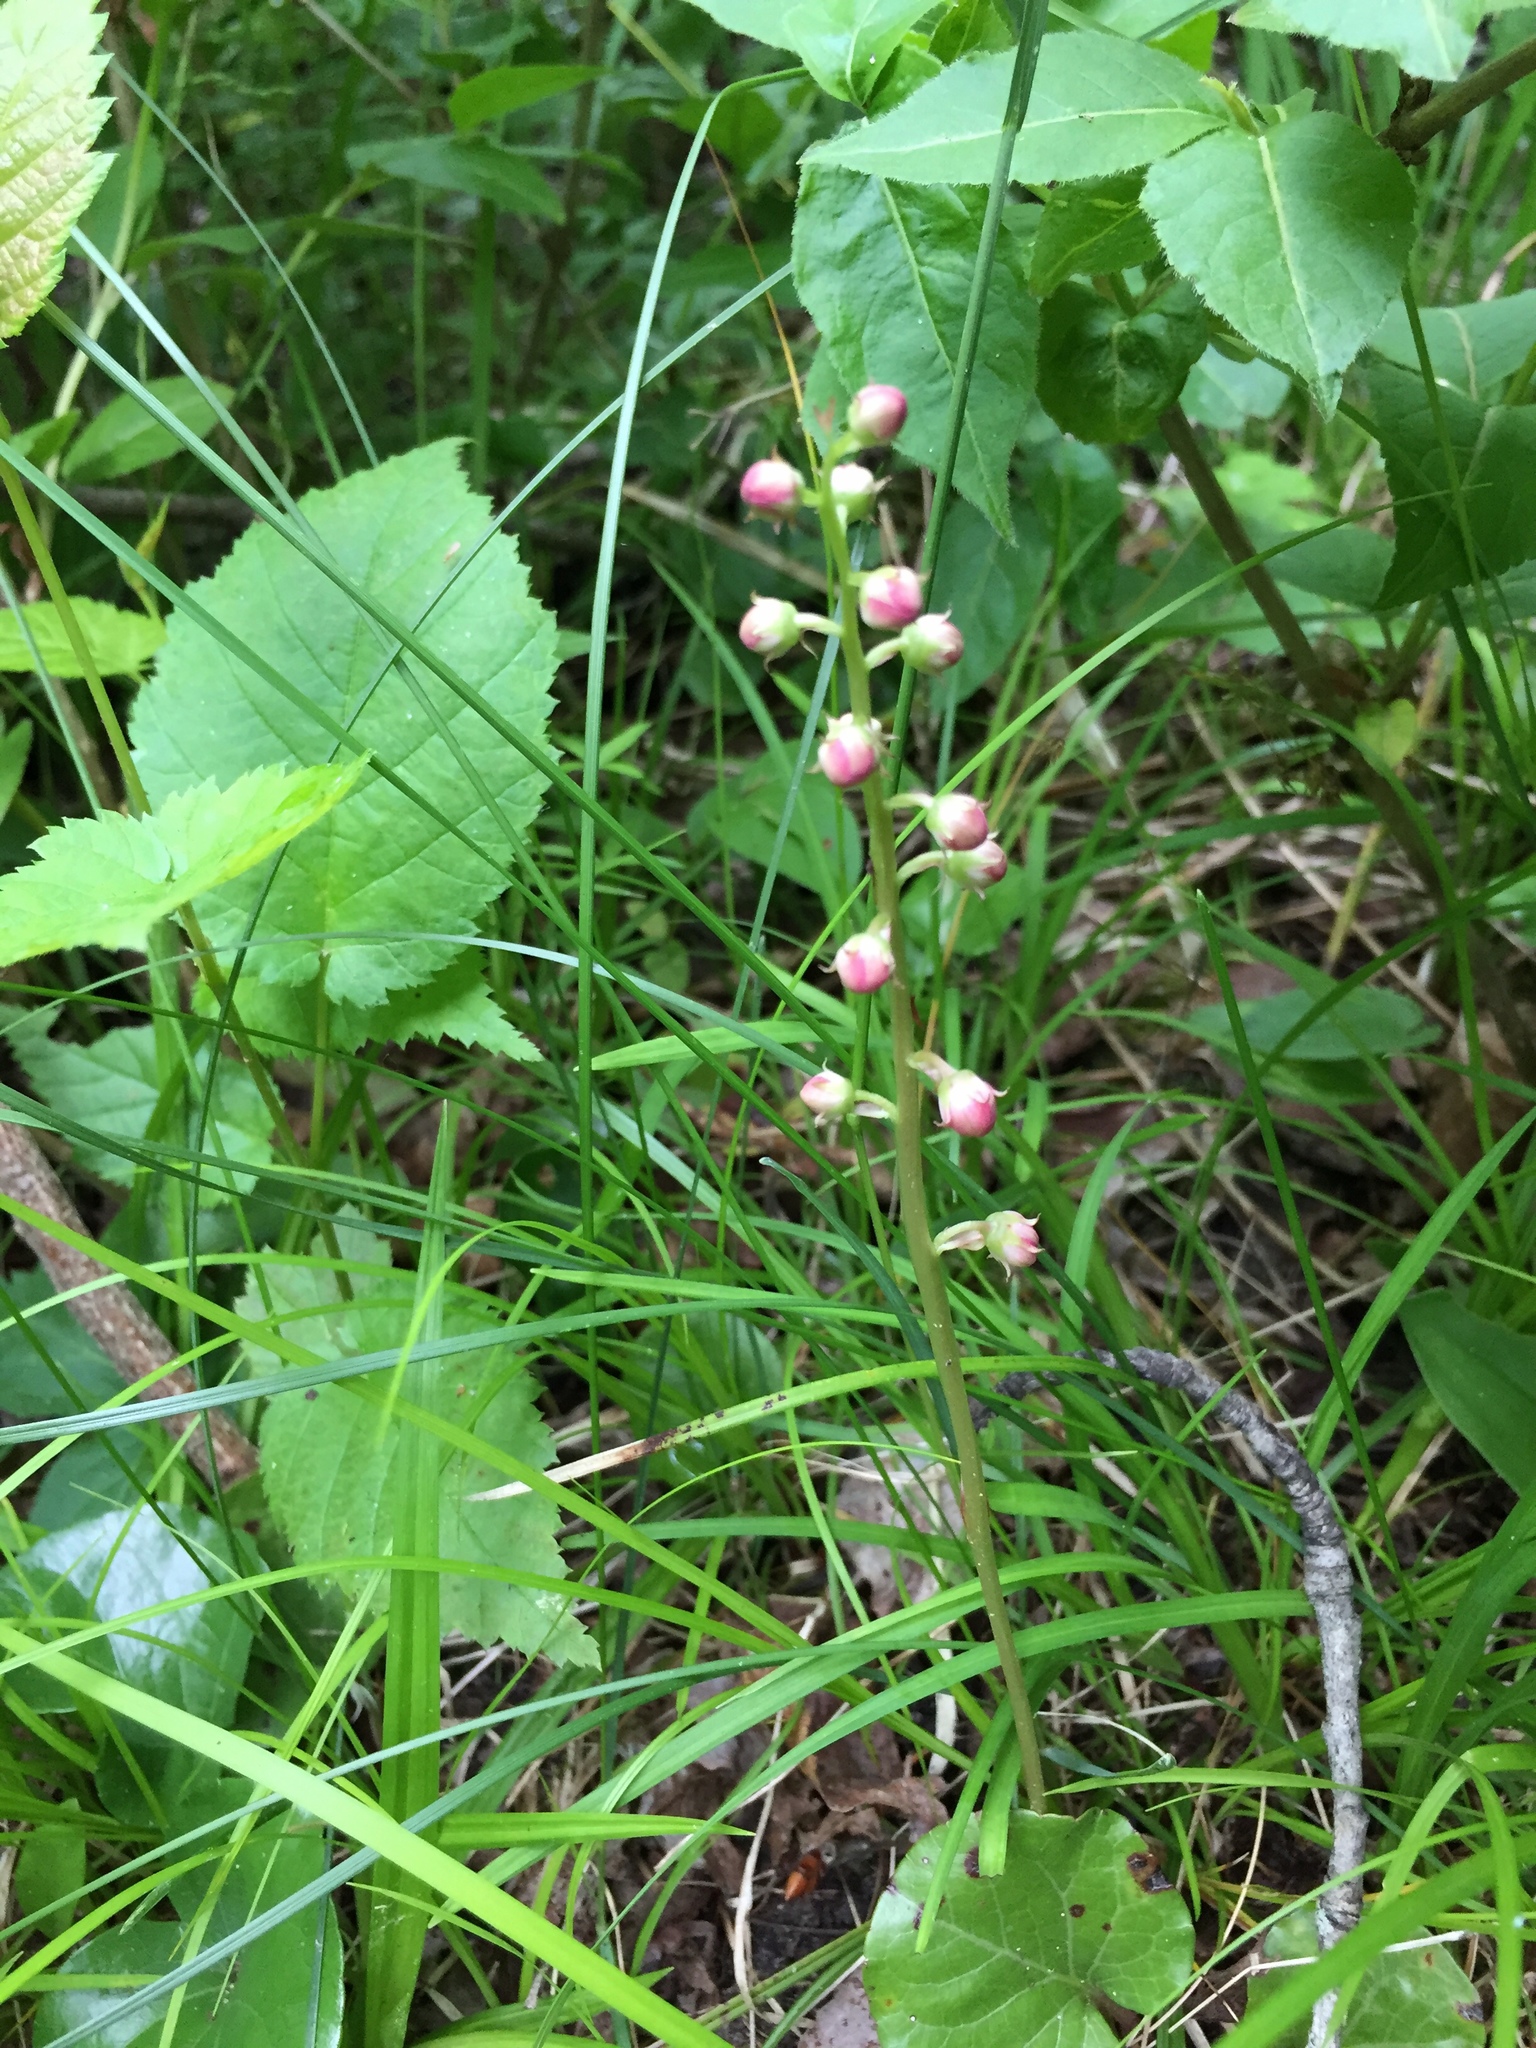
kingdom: Plantae
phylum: Tracheophyta
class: Magnoliopsida
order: Ericales
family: Ericaceae
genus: Pyrola
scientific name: Pyrola asarifolia
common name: Bog wintergreen
